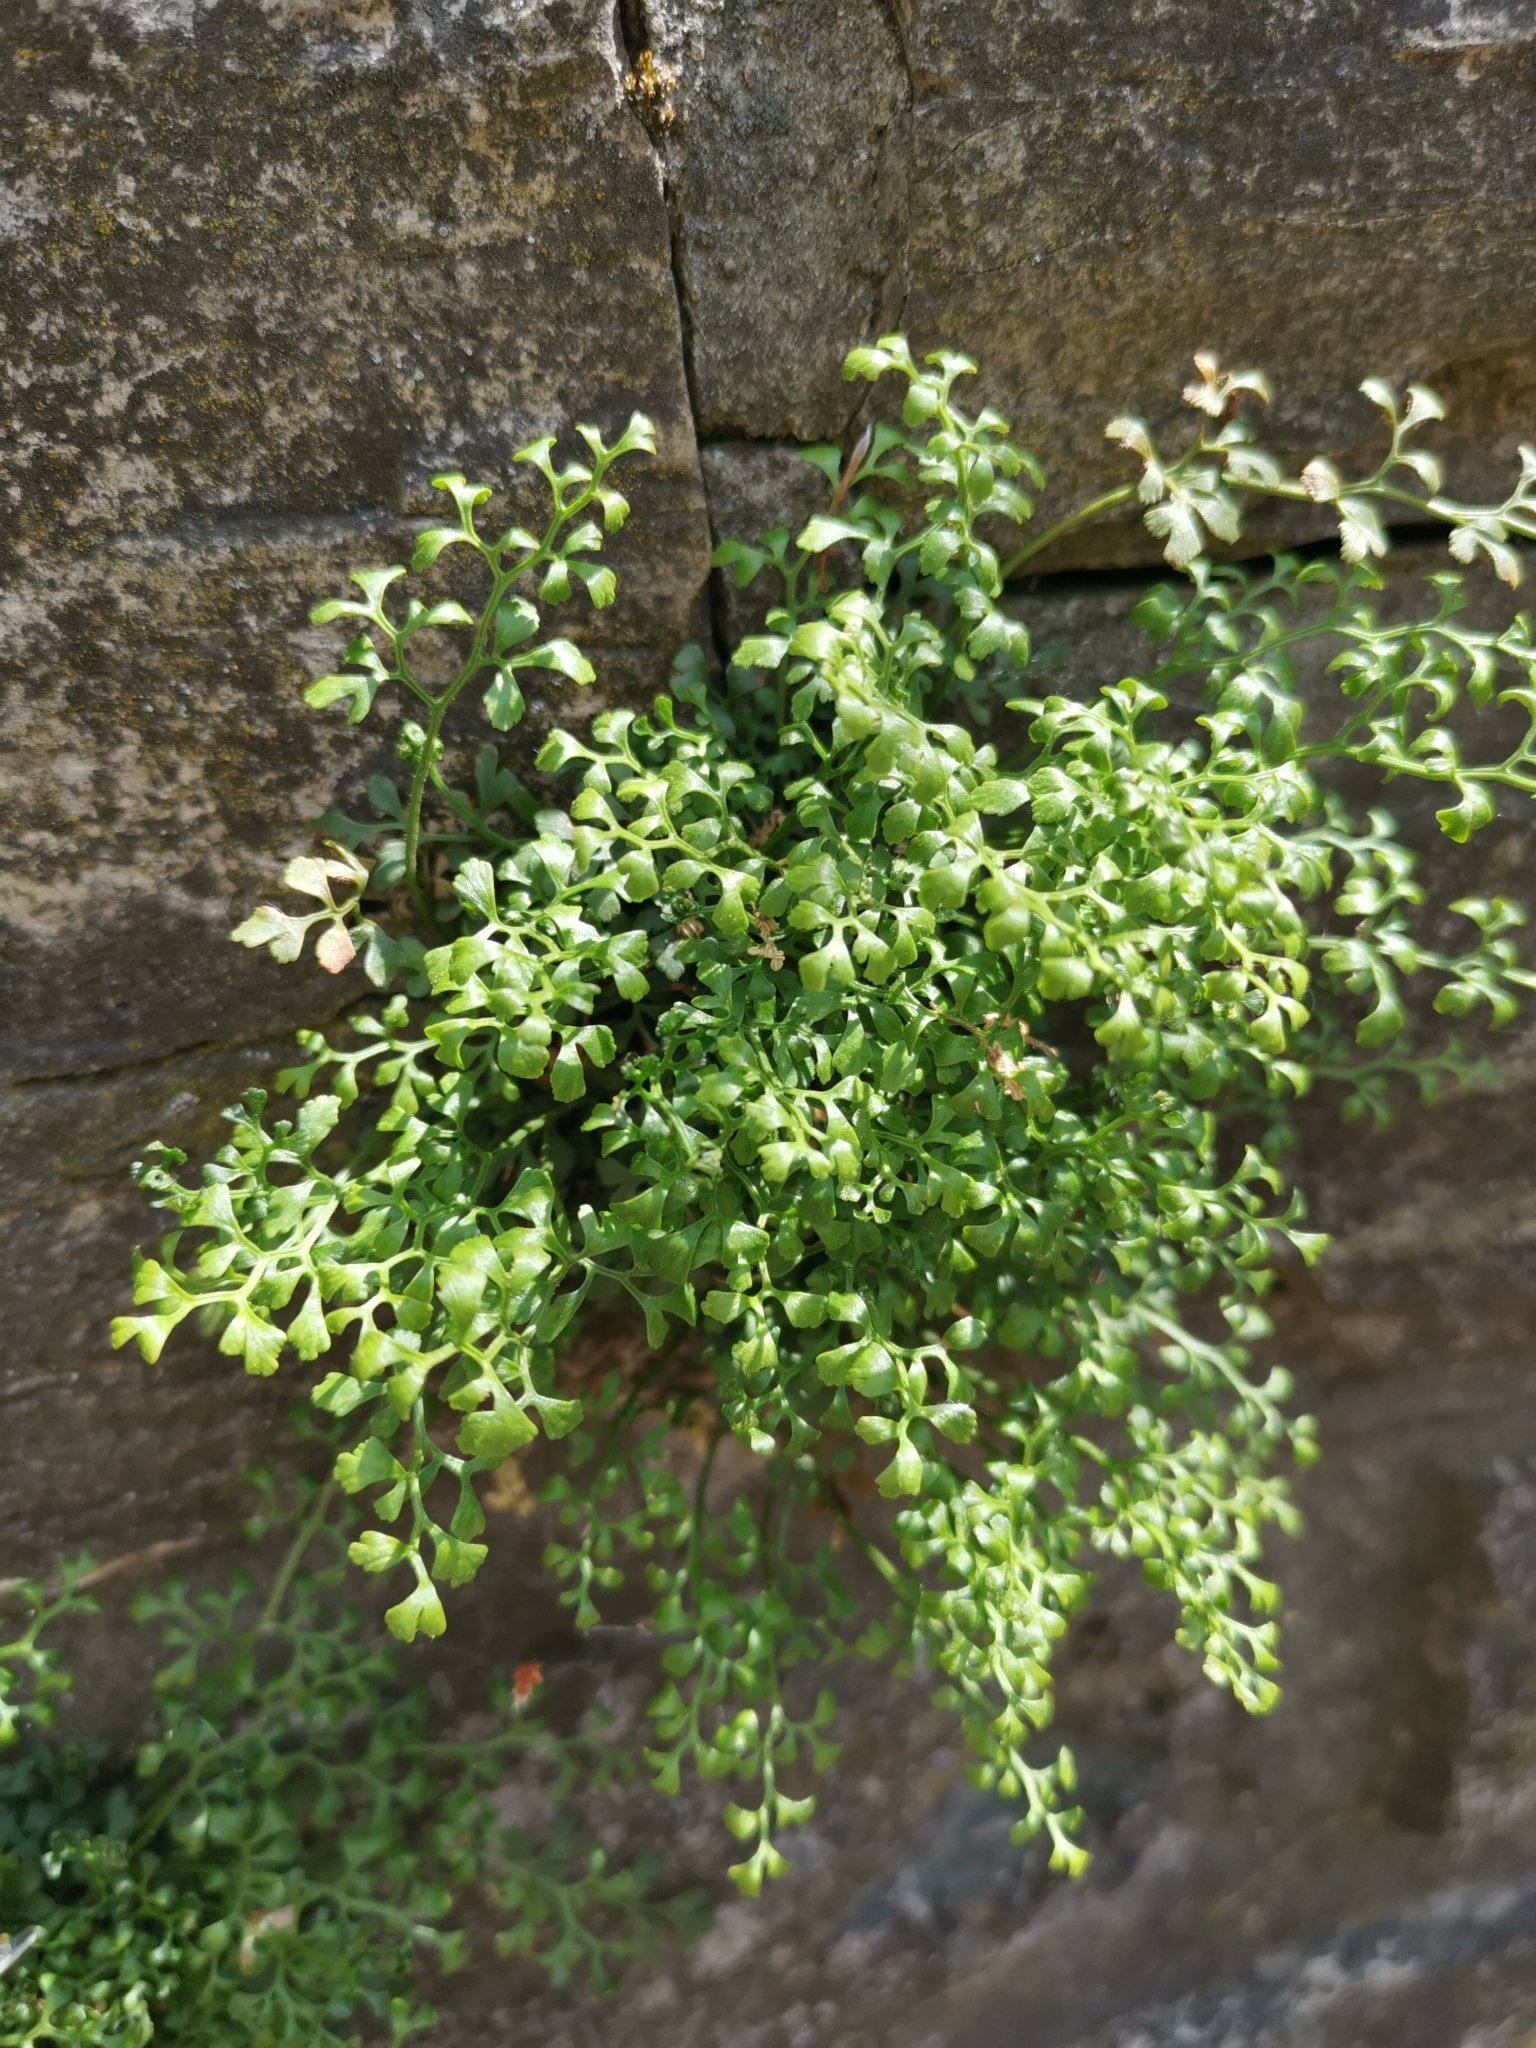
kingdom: Plantae
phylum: Tracheophyta
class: Polypodiopsida
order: Polypodiales
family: Aspleniaceae
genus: Asplenium
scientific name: Asplenium ruta-muraria
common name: Wall-rue
